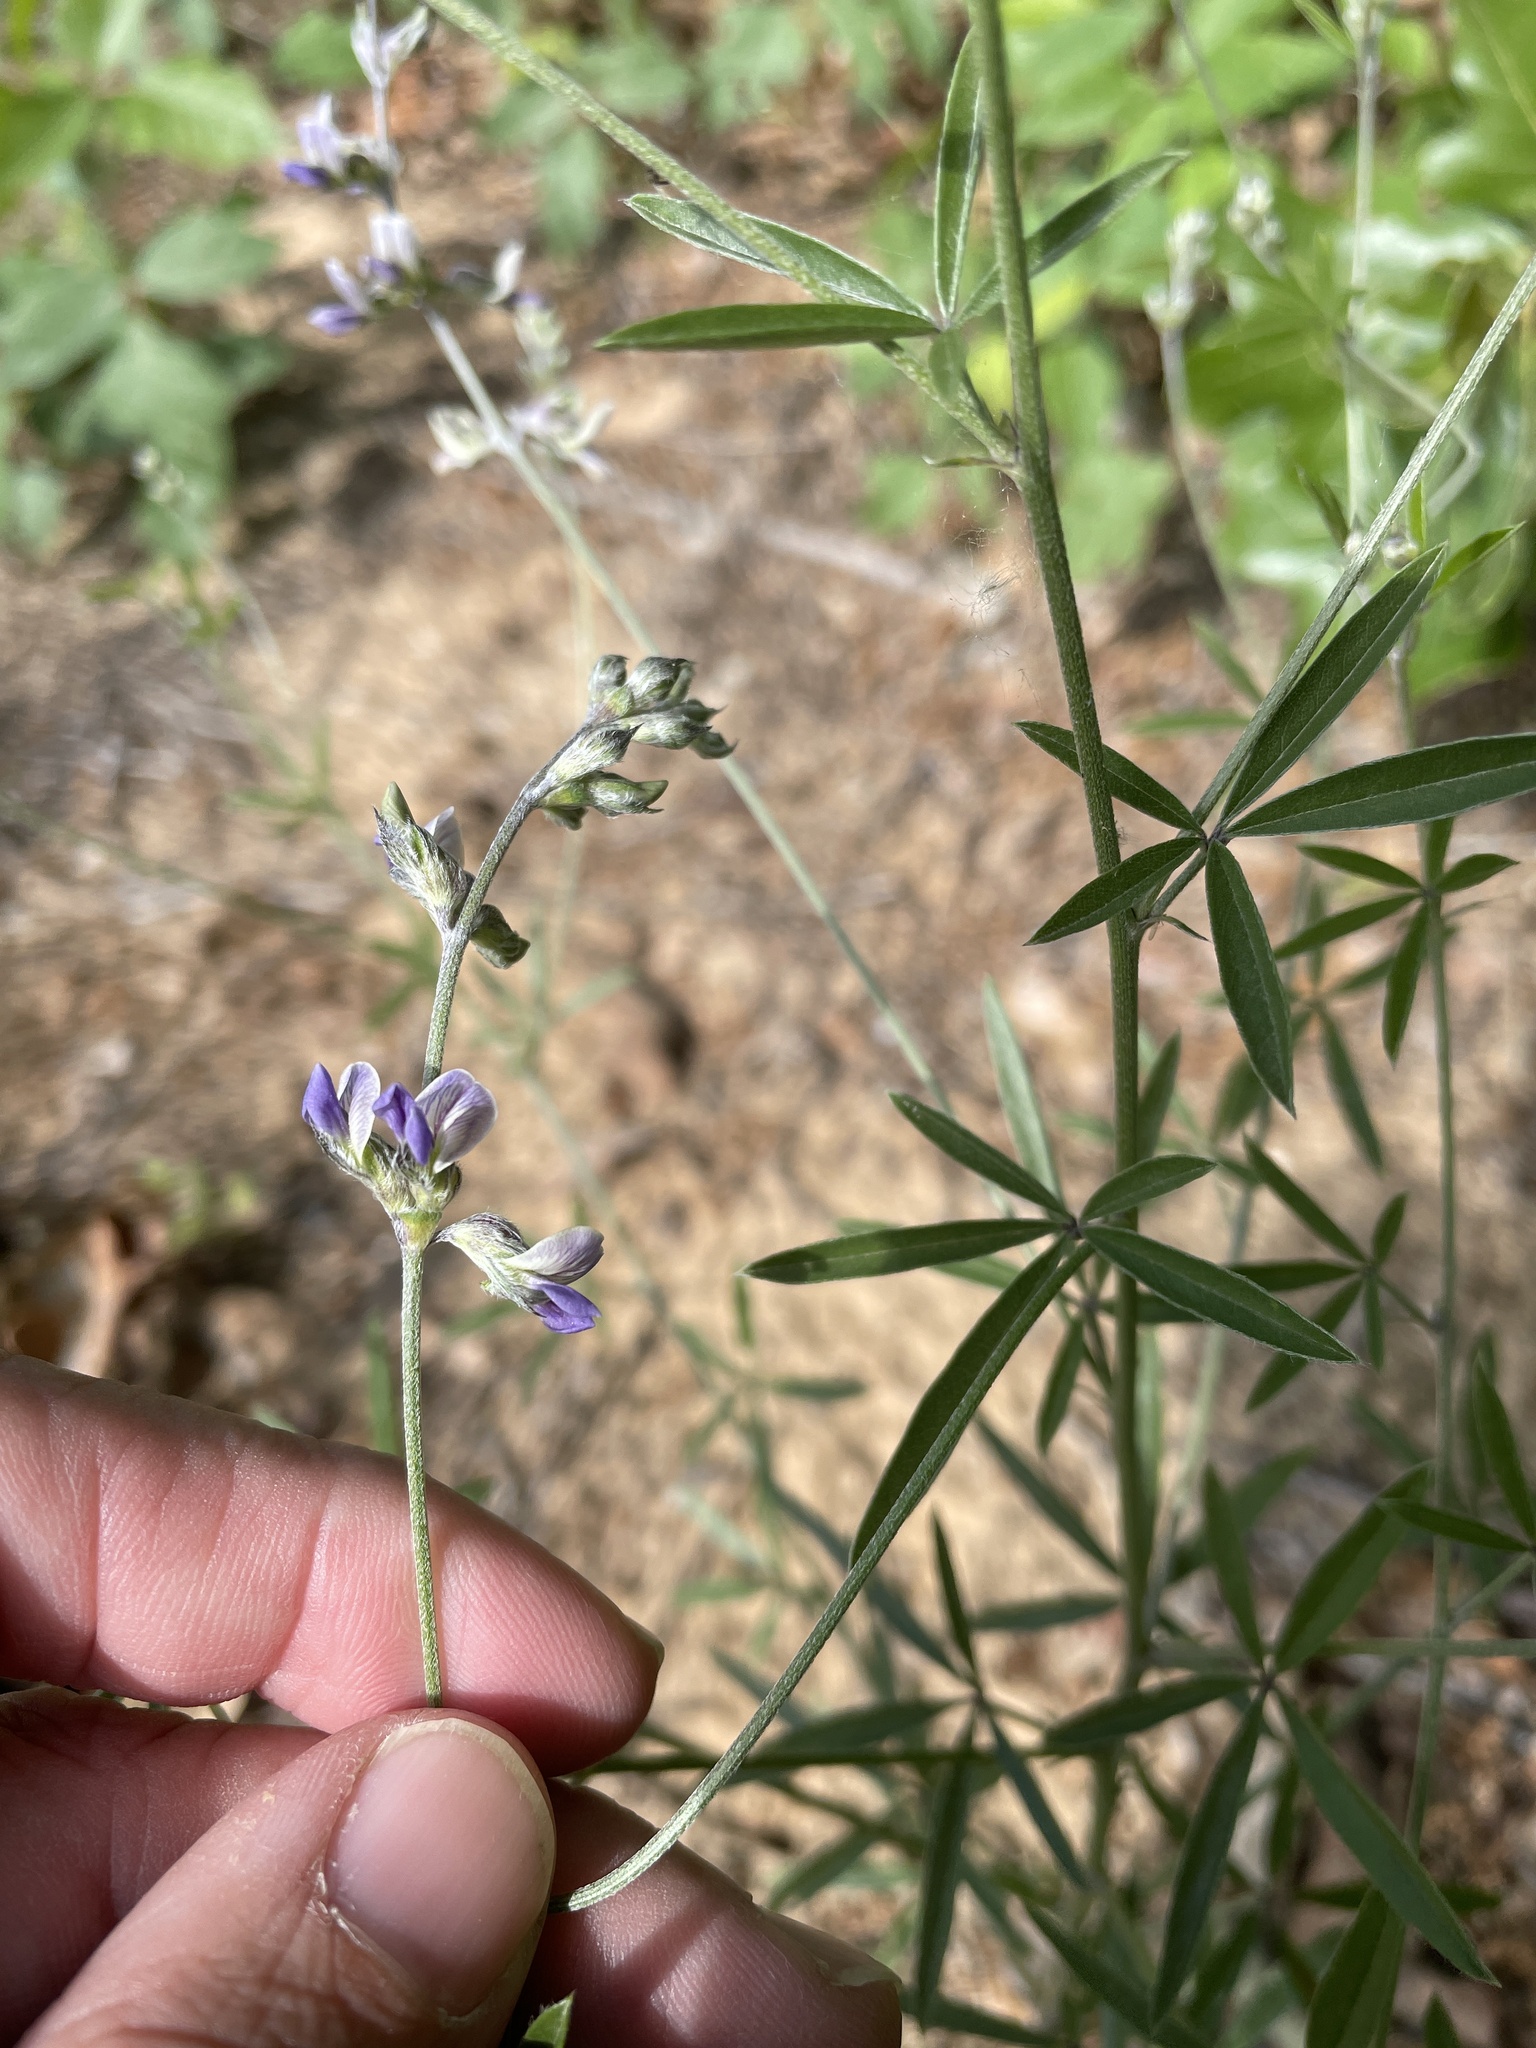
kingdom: Plantae
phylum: Tracheophyta
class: Magnoliopsida
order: Fabales
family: Fabaceae
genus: Pediomelum
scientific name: Pediomelum digitatum
